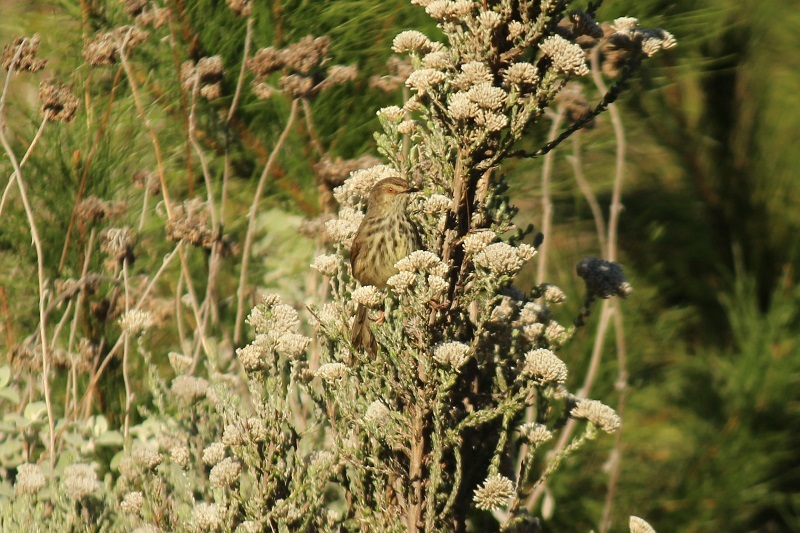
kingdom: Animalia
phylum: Chordata
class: Aves
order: Passeriformes
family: Cisticolidae
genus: Prinia
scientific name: Prinia maculosa
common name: Karoo prinia
